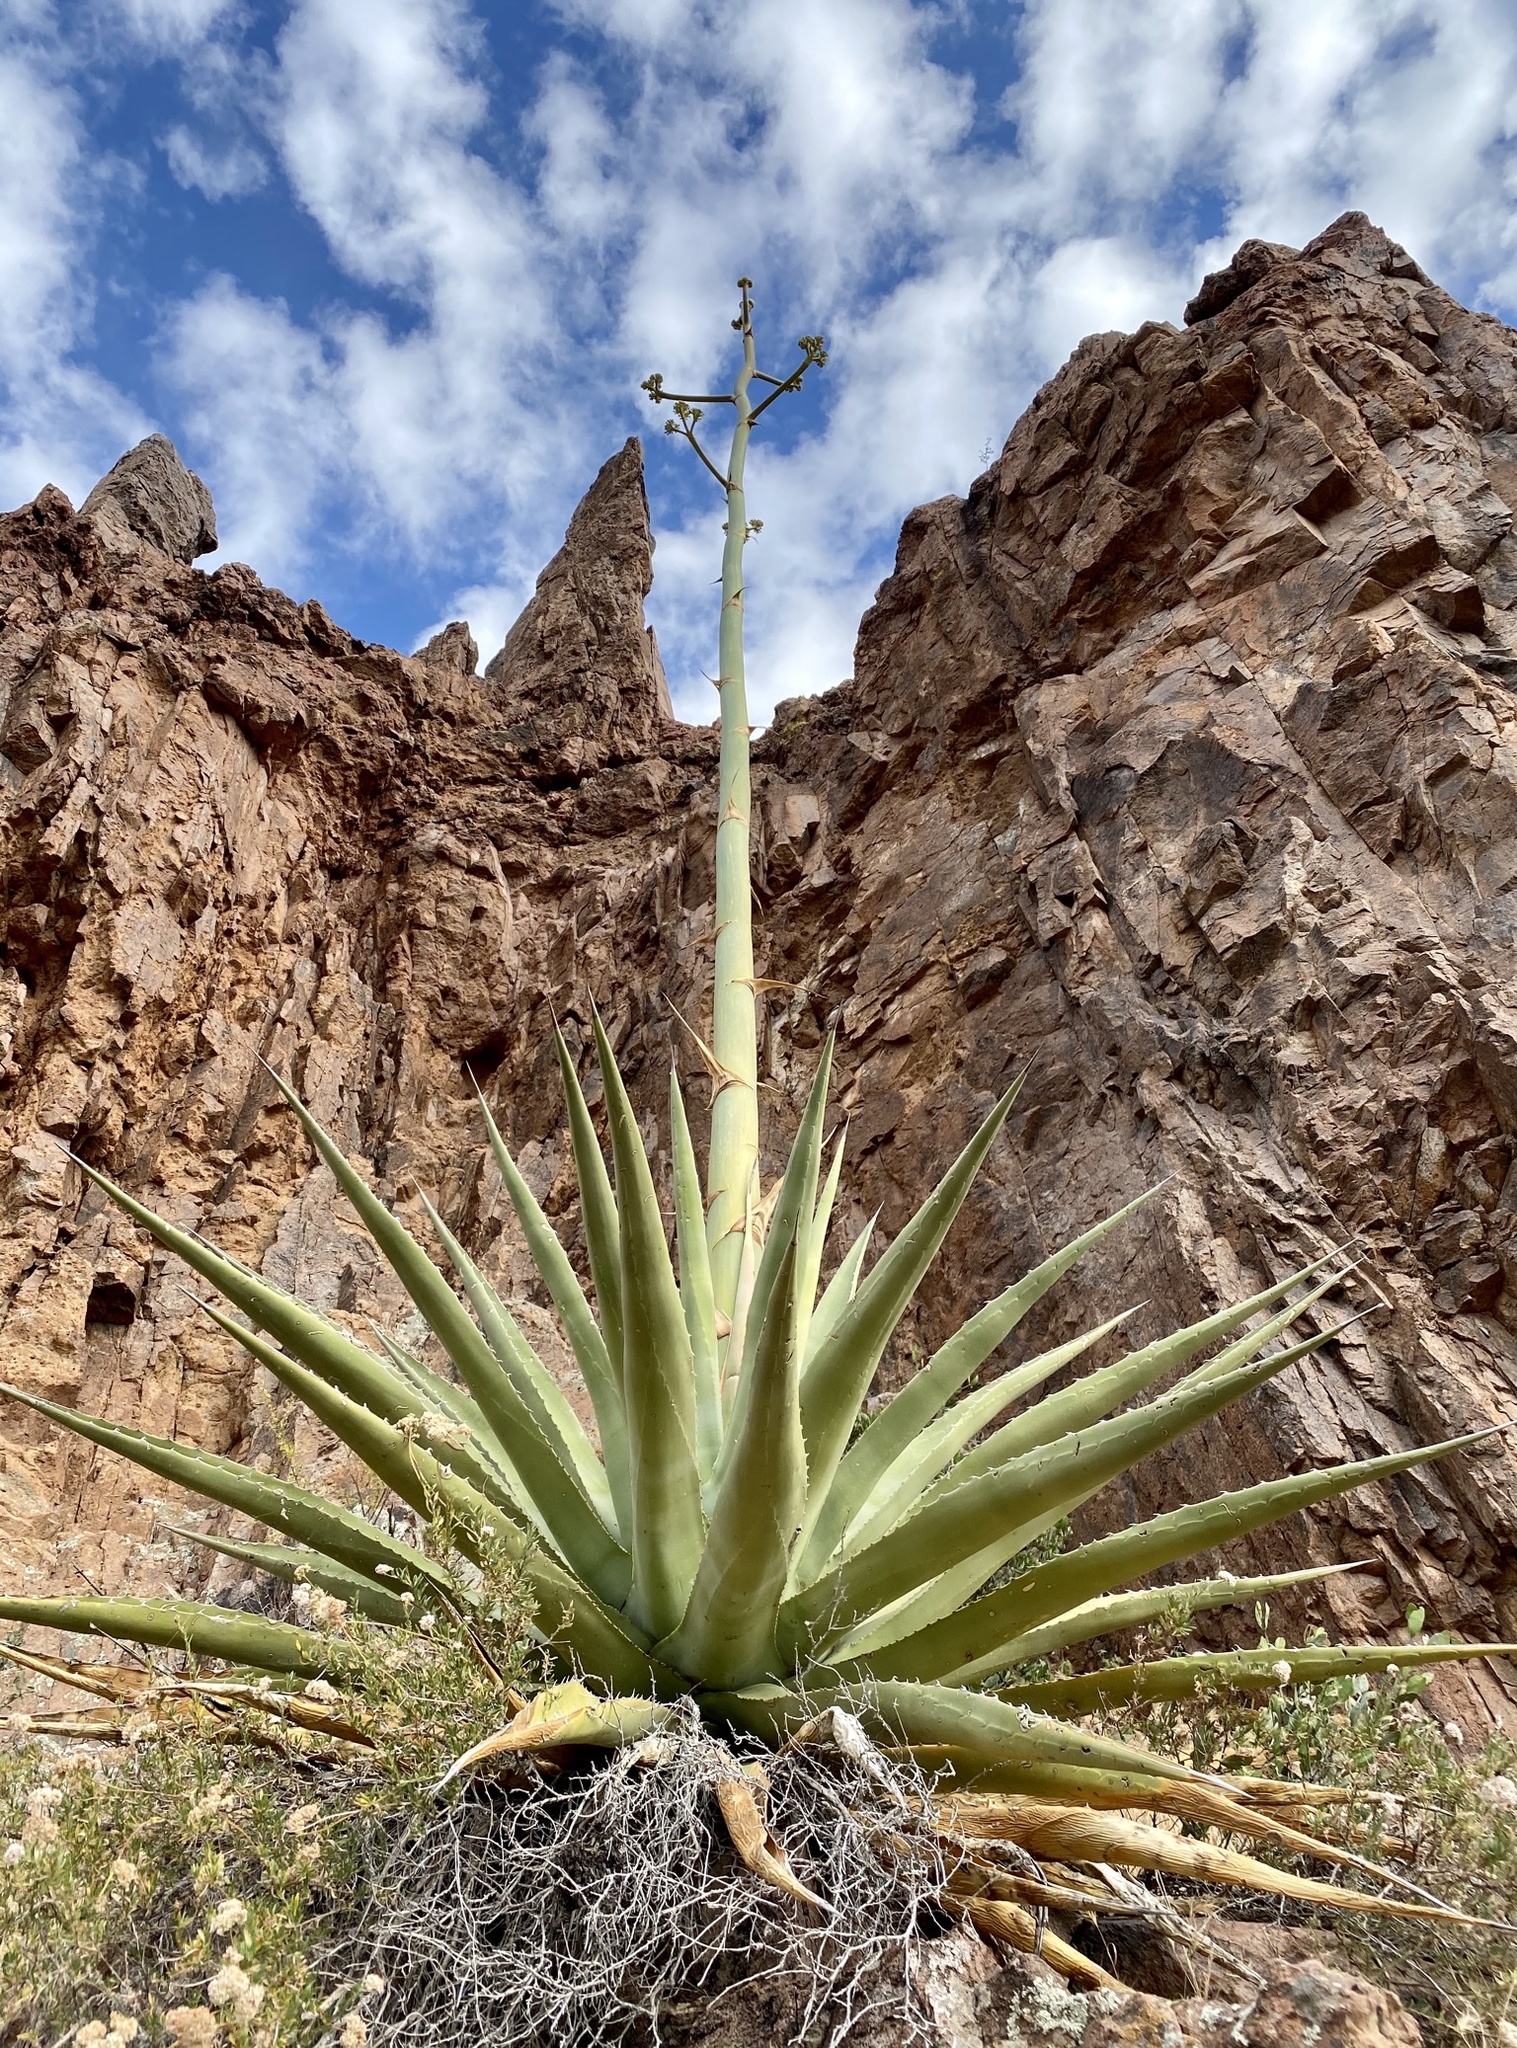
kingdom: Plantae
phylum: Tracheophyta
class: Liliopsida
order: Asparagales
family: Asparagaceae
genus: Agave
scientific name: Agave chrysantha
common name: Golden-flowered agave
